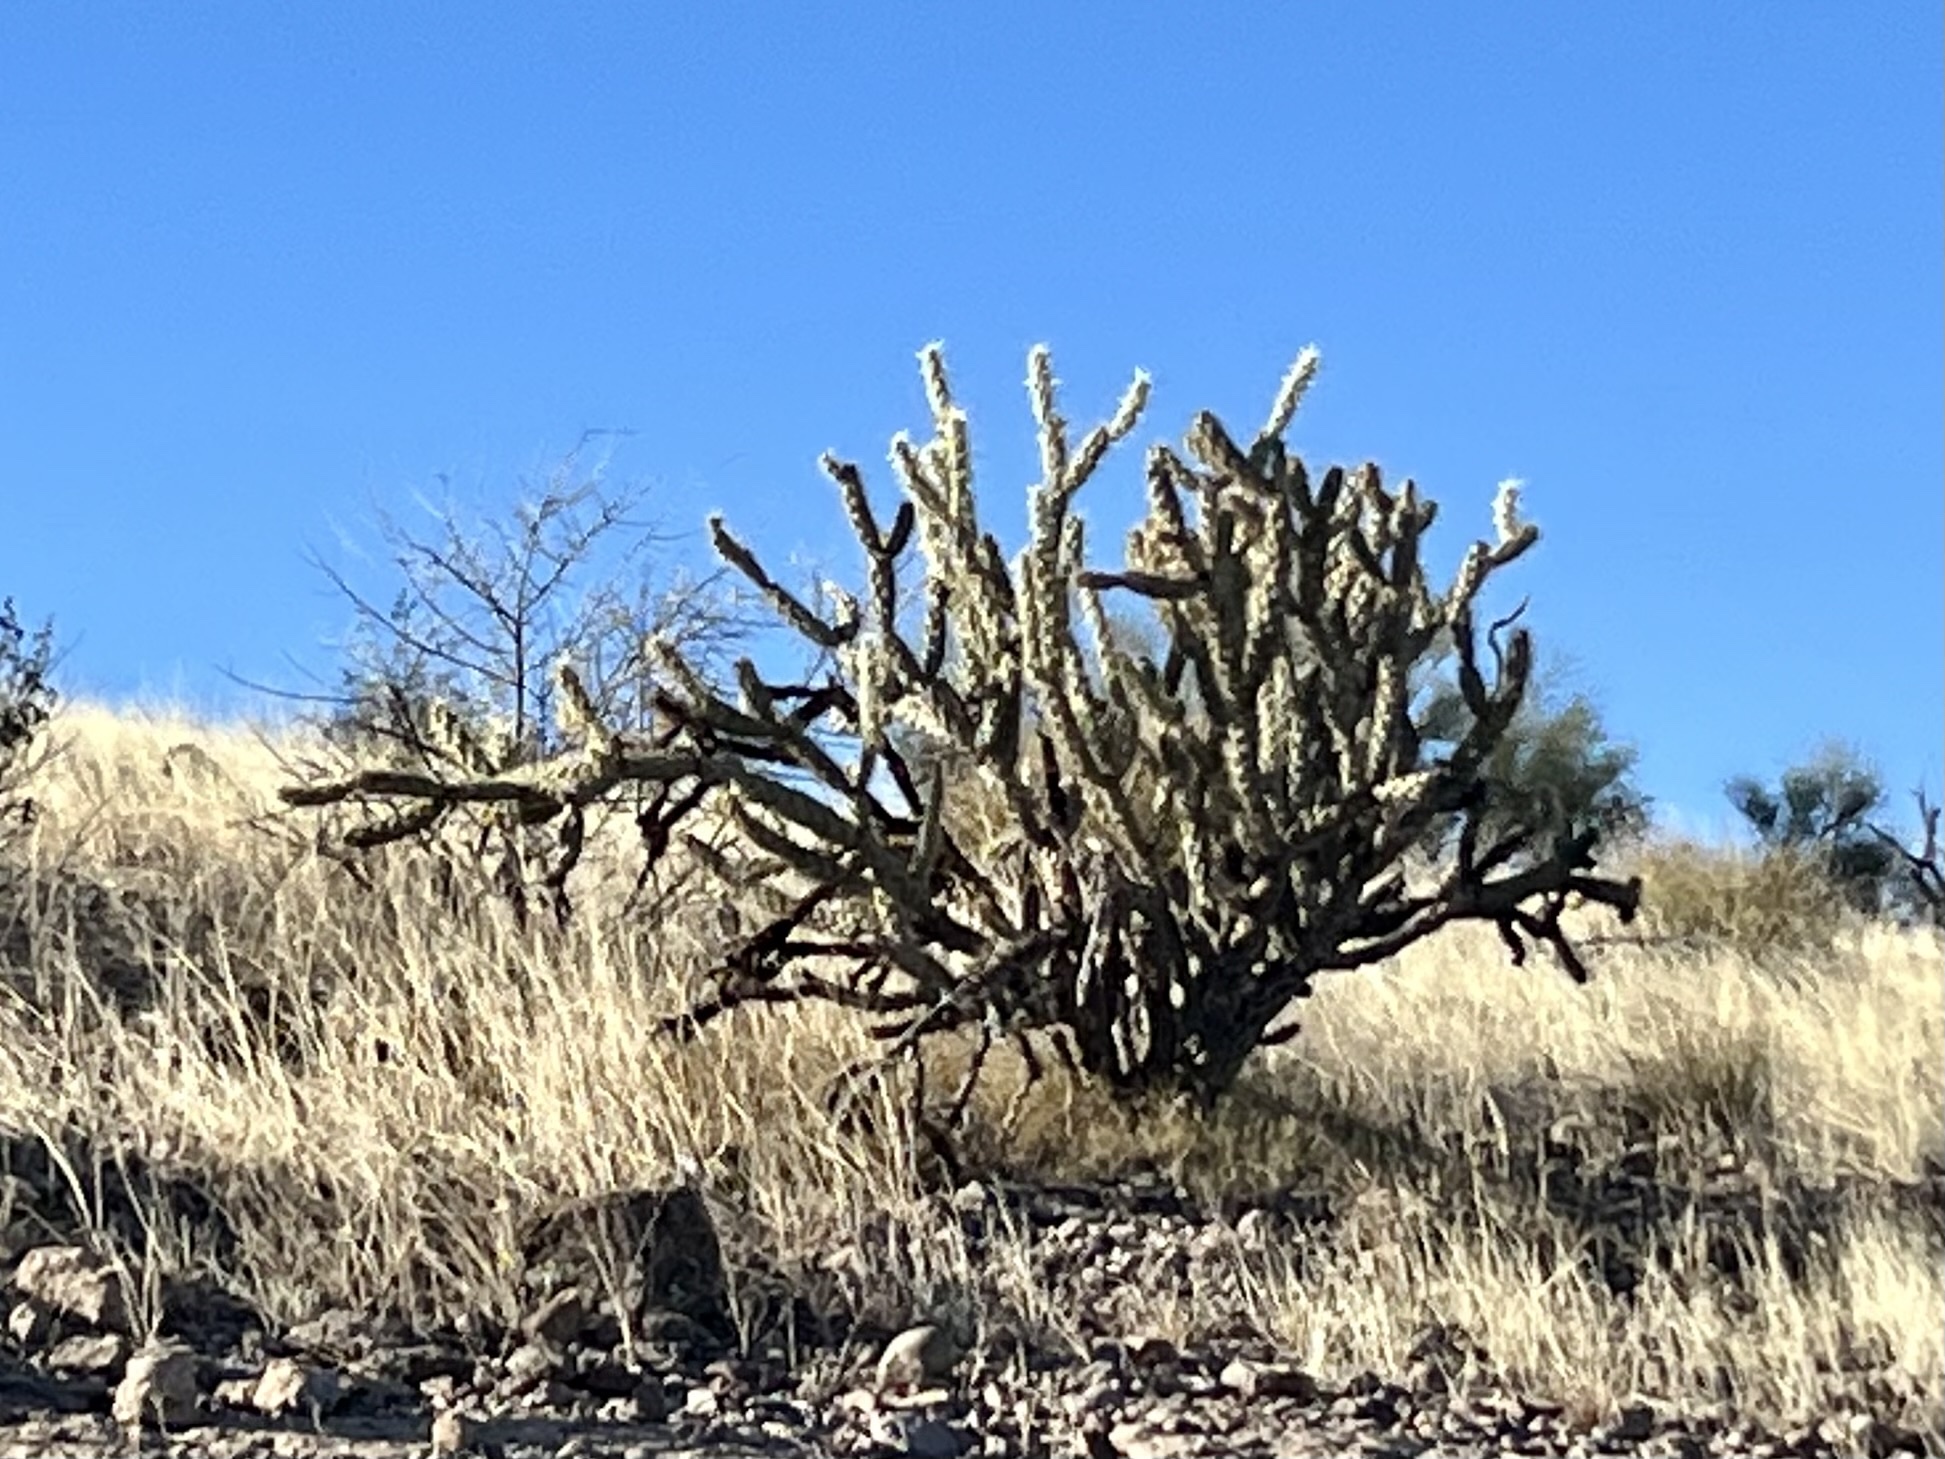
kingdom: Plantae
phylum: Tracheophyta
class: Magnoliopsida
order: Caryophyllales
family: Cactaceae
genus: Cylindropuntia
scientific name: Cylindropuntia acanthocarpa
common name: Buckhorn cholla
